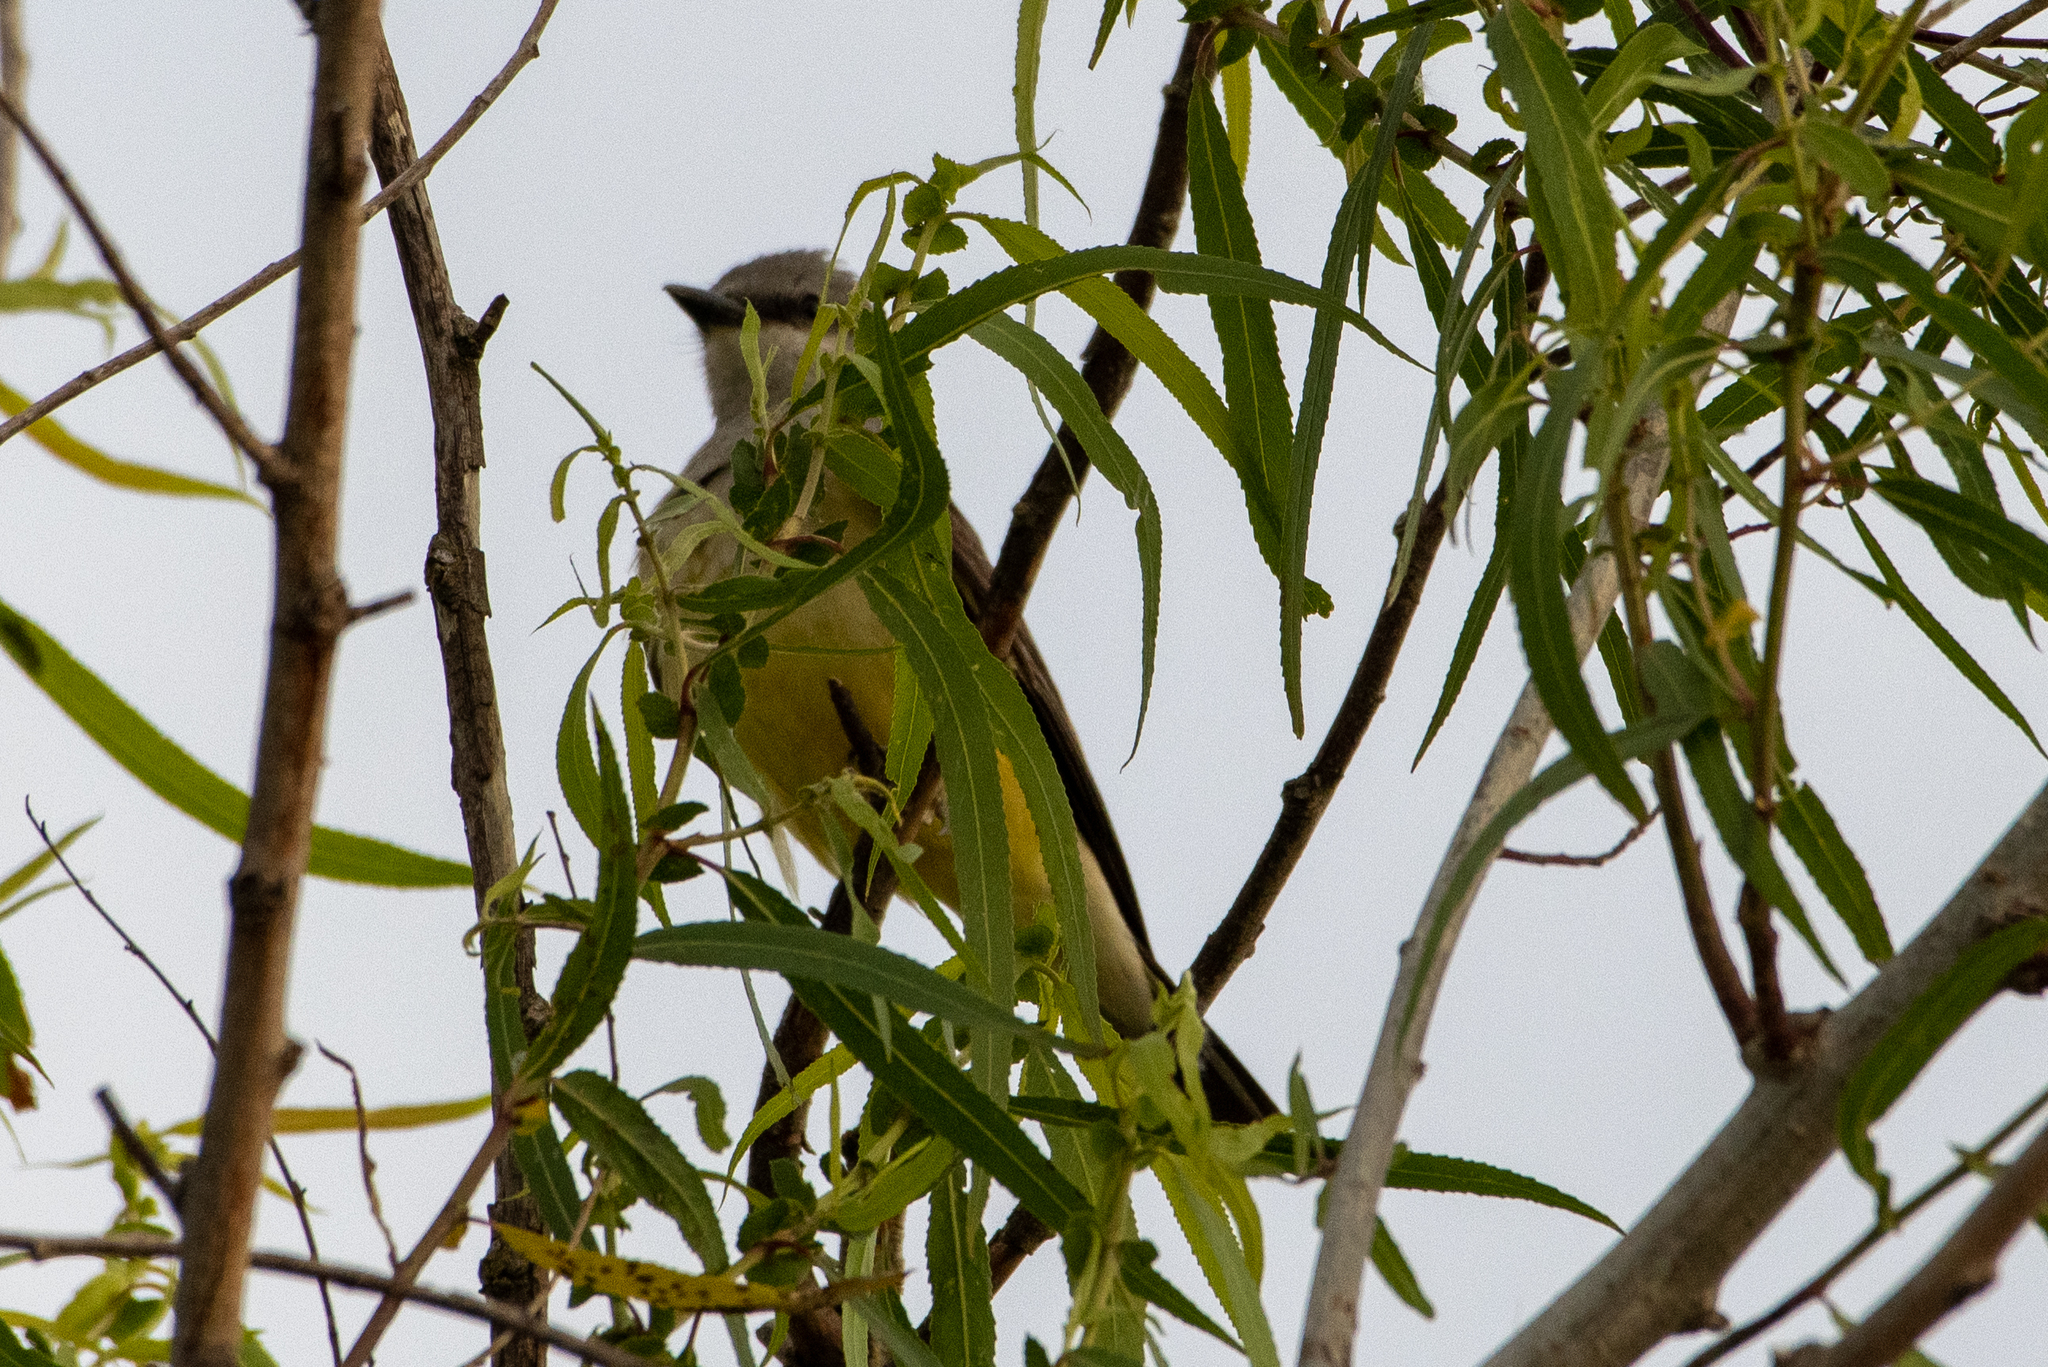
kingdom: Animalia
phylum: Chordata
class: Aves
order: Passeriformes
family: Tyrannidae
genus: Tyrannus
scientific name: Tyrannus verticalis
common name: Western kingbird
